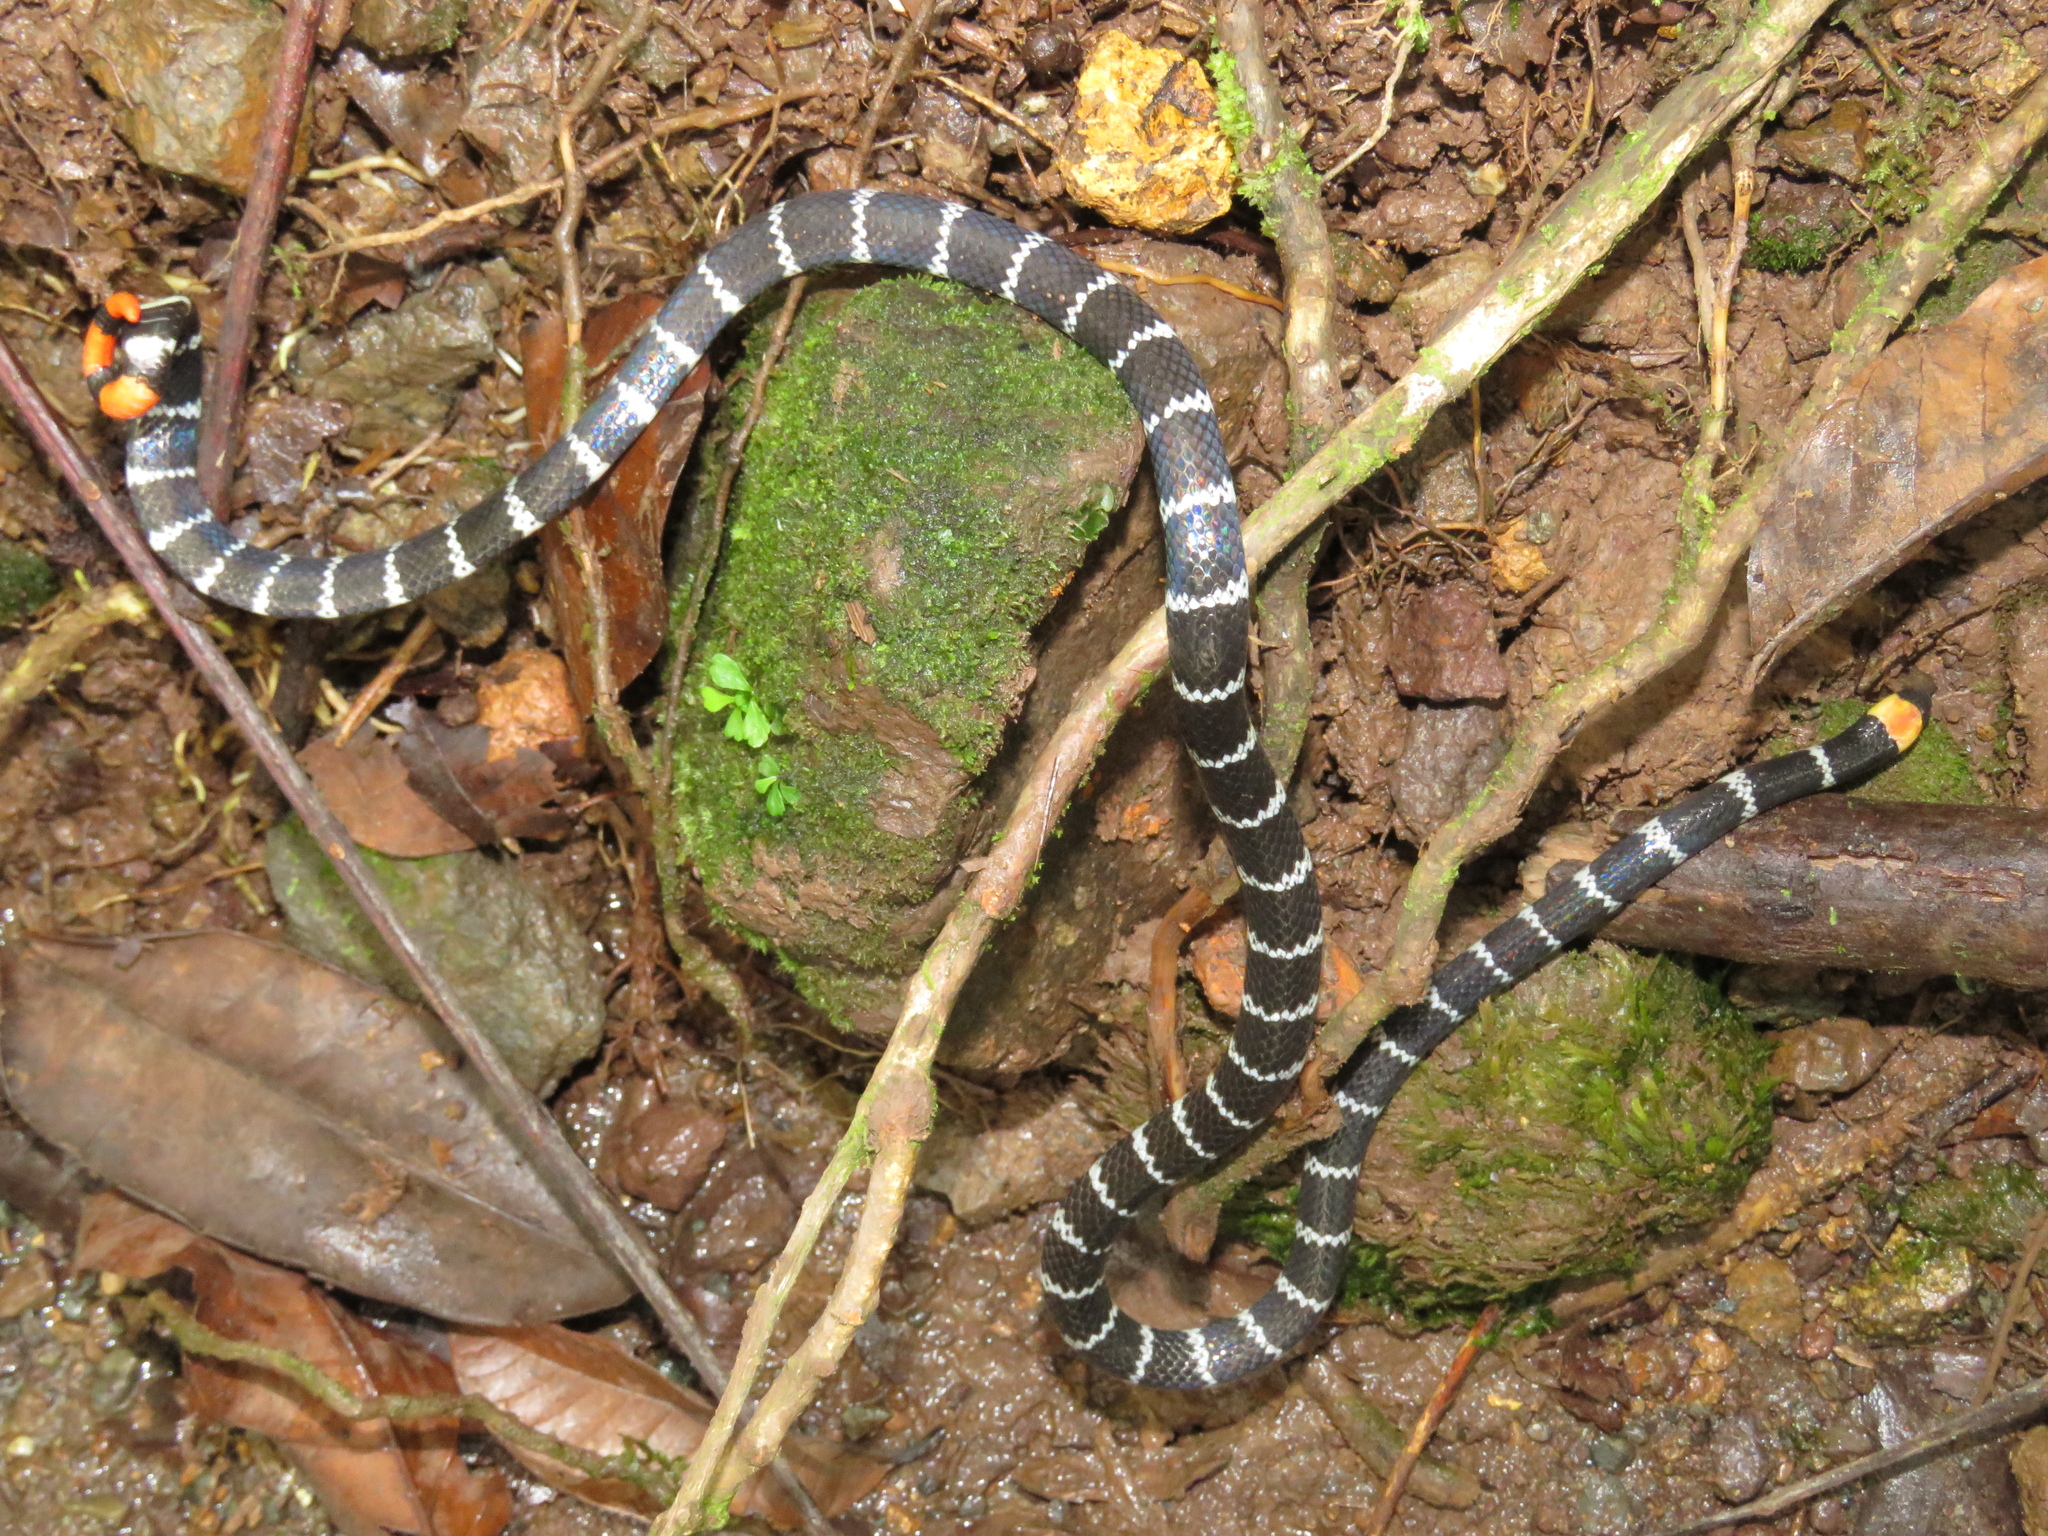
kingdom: Animalia
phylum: Chordata
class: Squamata
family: Elapidae
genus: Micrurus
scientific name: Micrurus mipartitus
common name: Redtail coral snake
